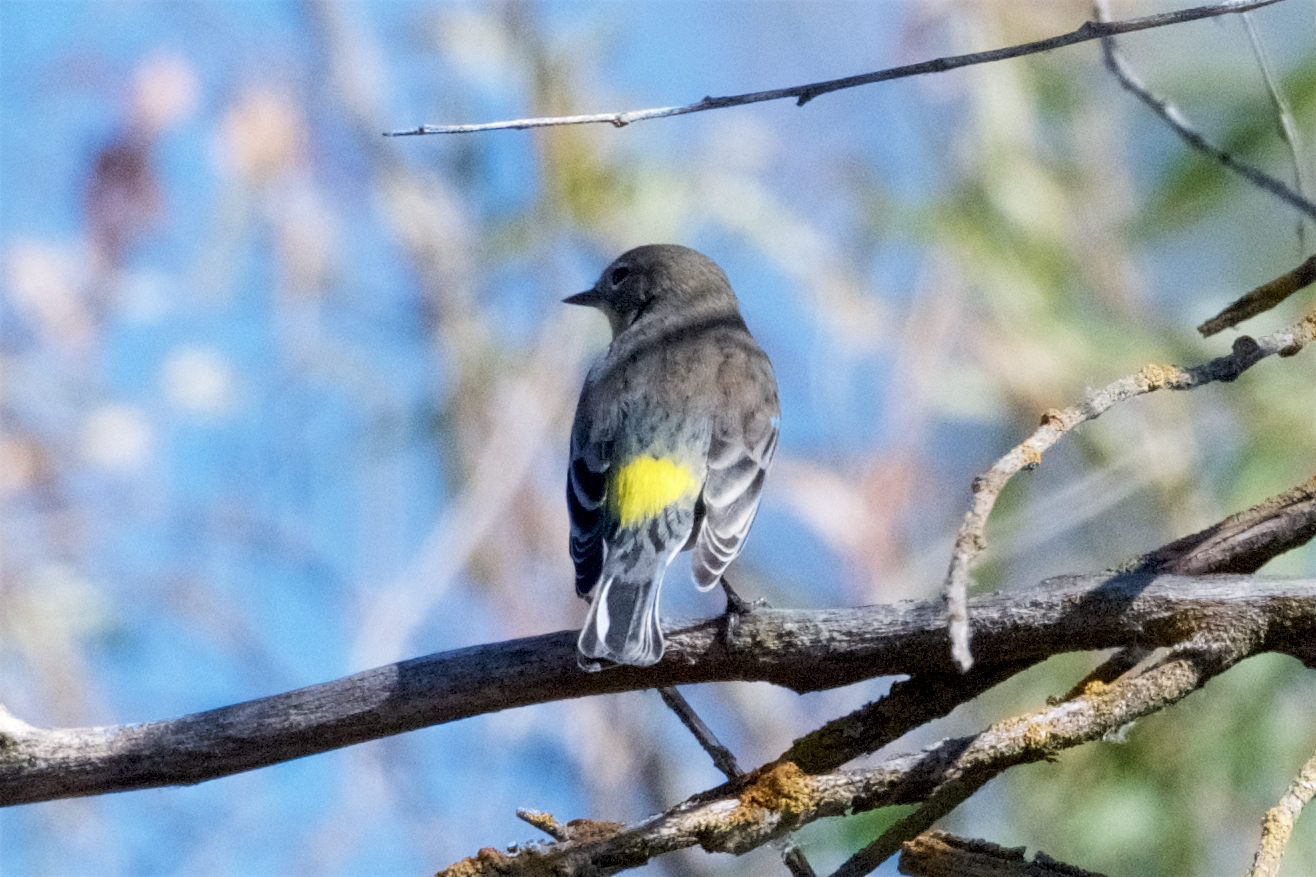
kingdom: Animalia
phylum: Chordata
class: Aves
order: Passeriformes
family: Parulidae
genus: Setophaga
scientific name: Setophaga coronata
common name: Myrtle warbler
